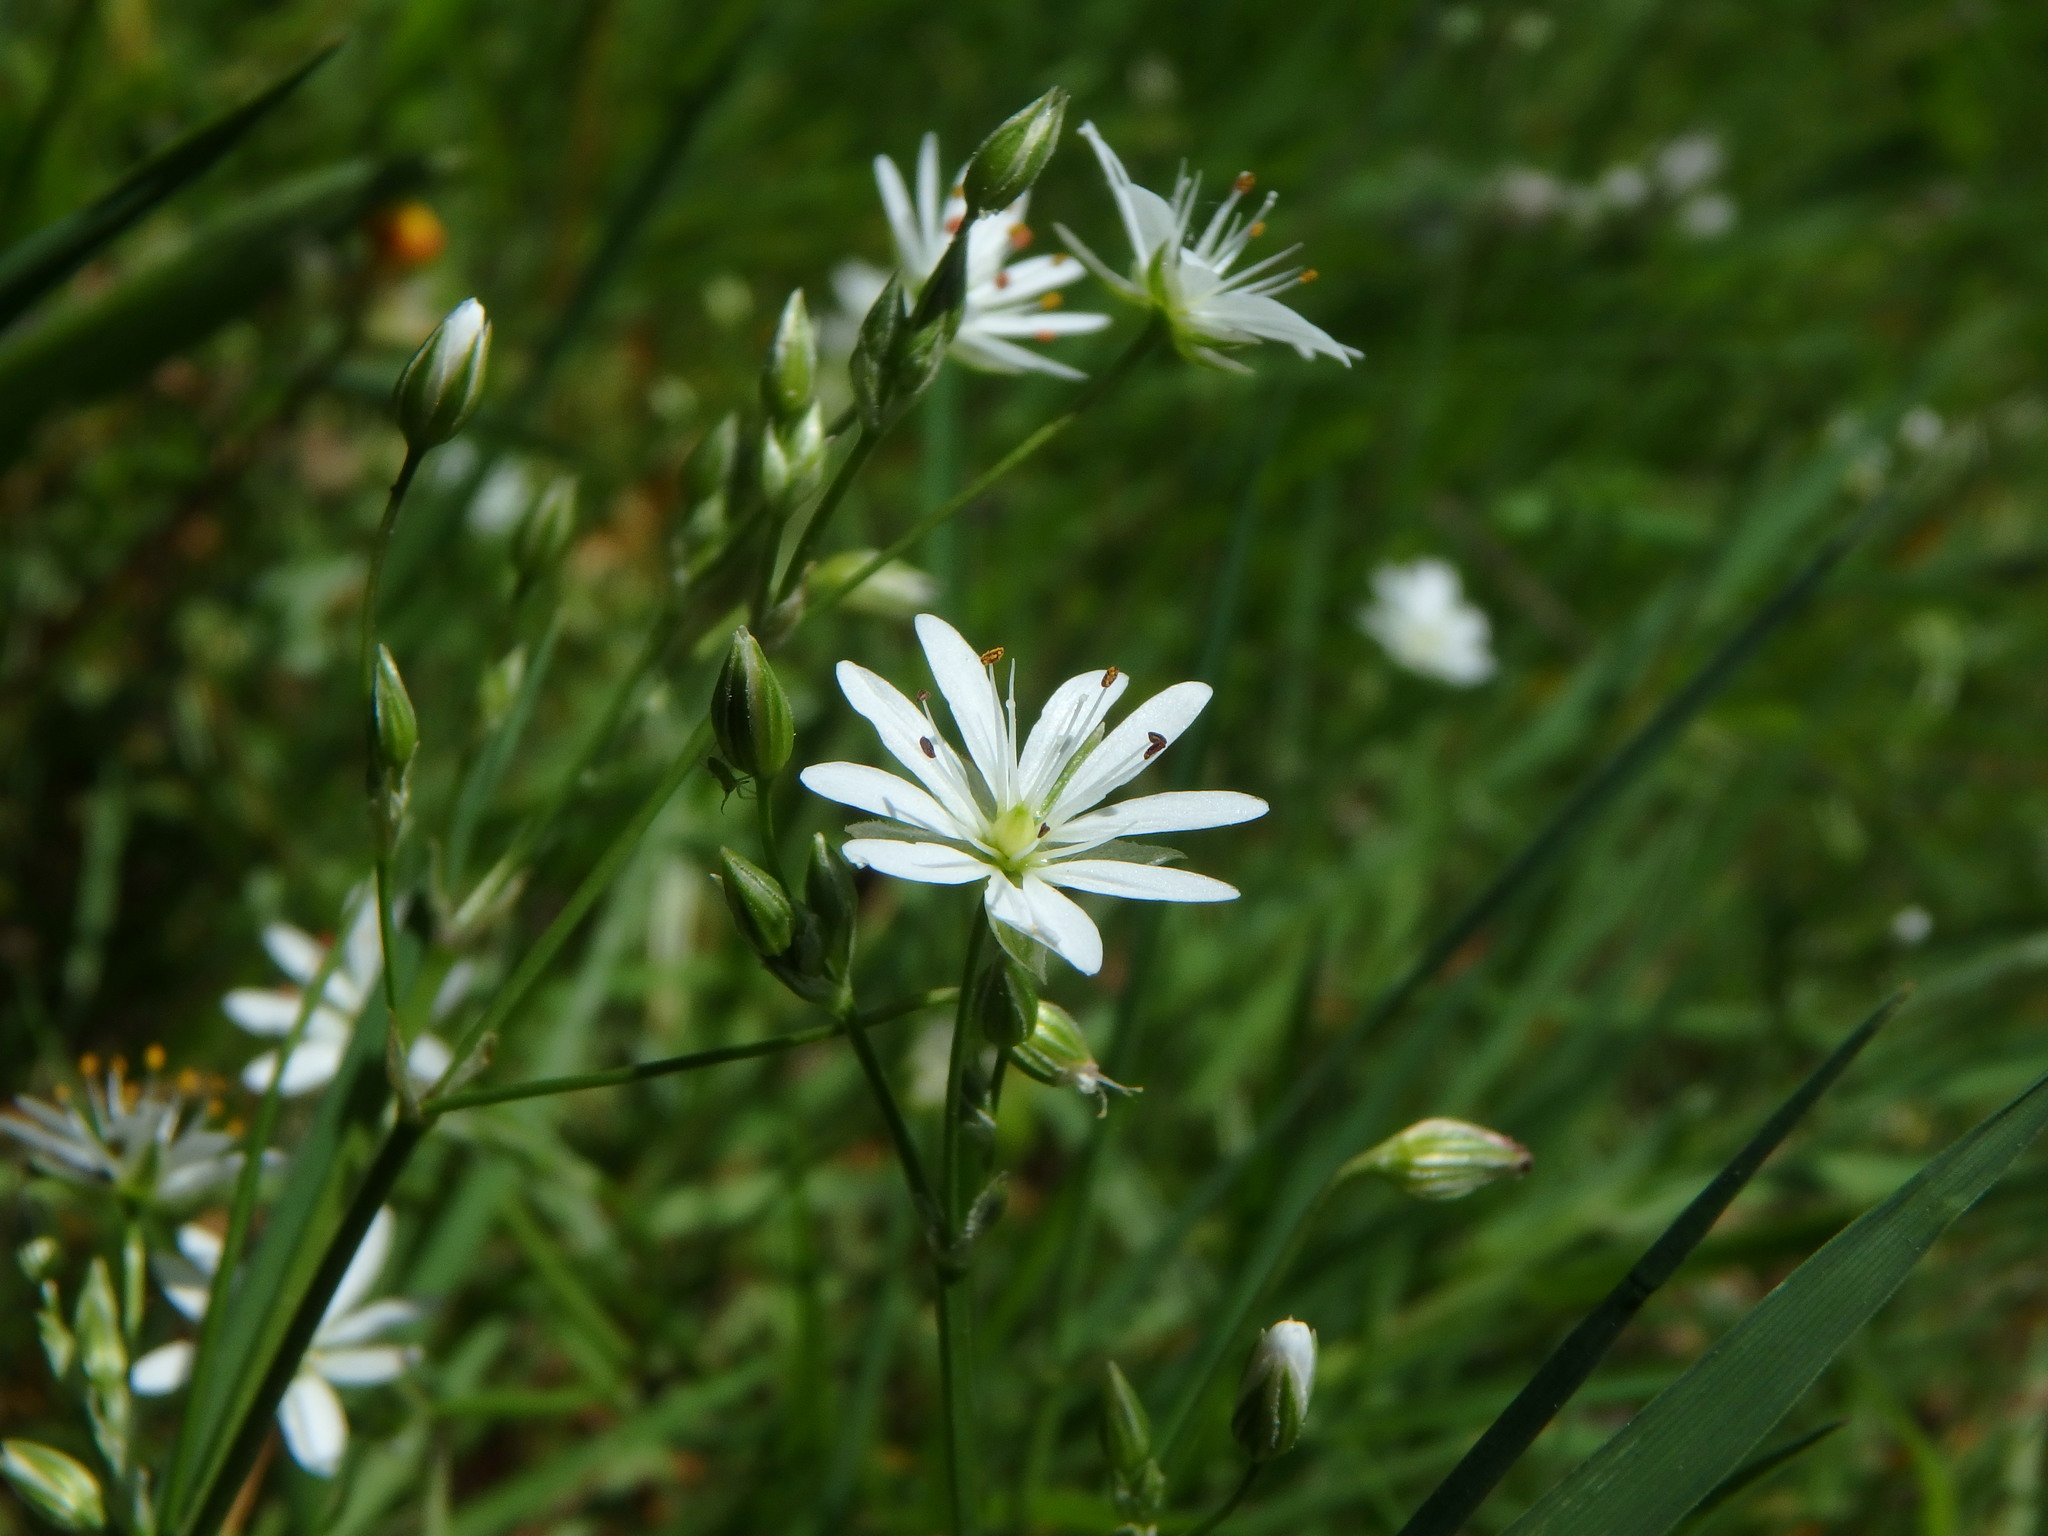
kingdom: Plantae
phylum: Tracheophyta
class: Magnoliopsida
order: Caryophyllales
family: Caryophyllaceae
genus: Stellaria
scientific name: Stellaria graminea
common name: Grass-like starwort
